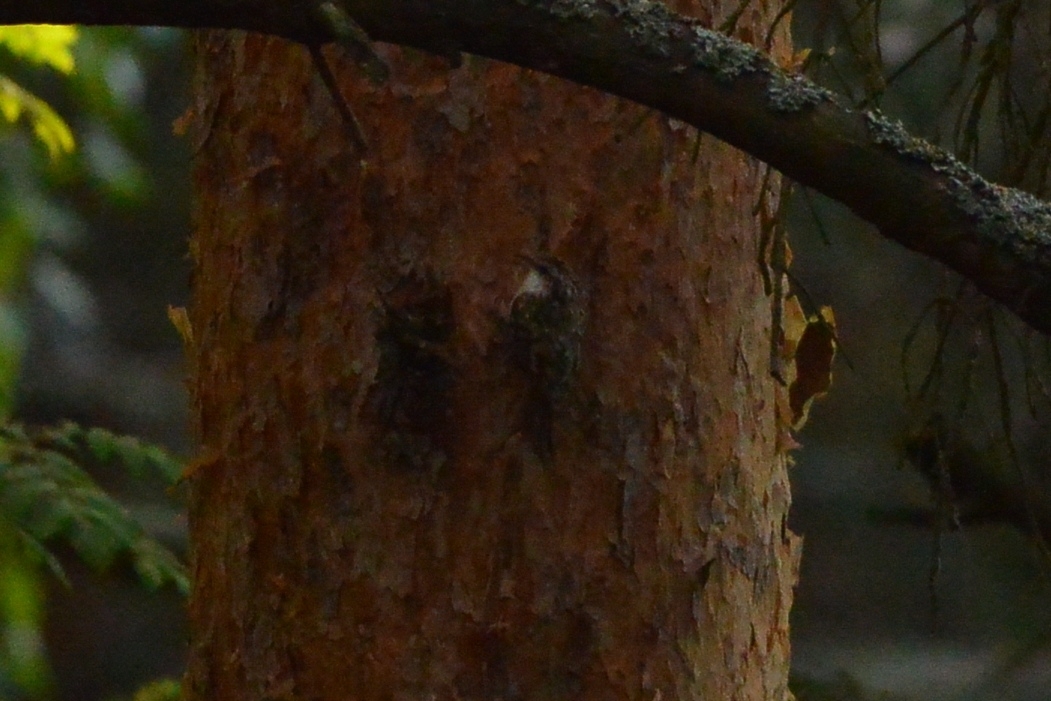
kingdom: Animalia
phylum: Chordata
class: Aves
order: Passeriformes
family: Certhiidae
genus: Certhia
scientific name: Certhia familiaris
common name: Eurasian treecreeper
